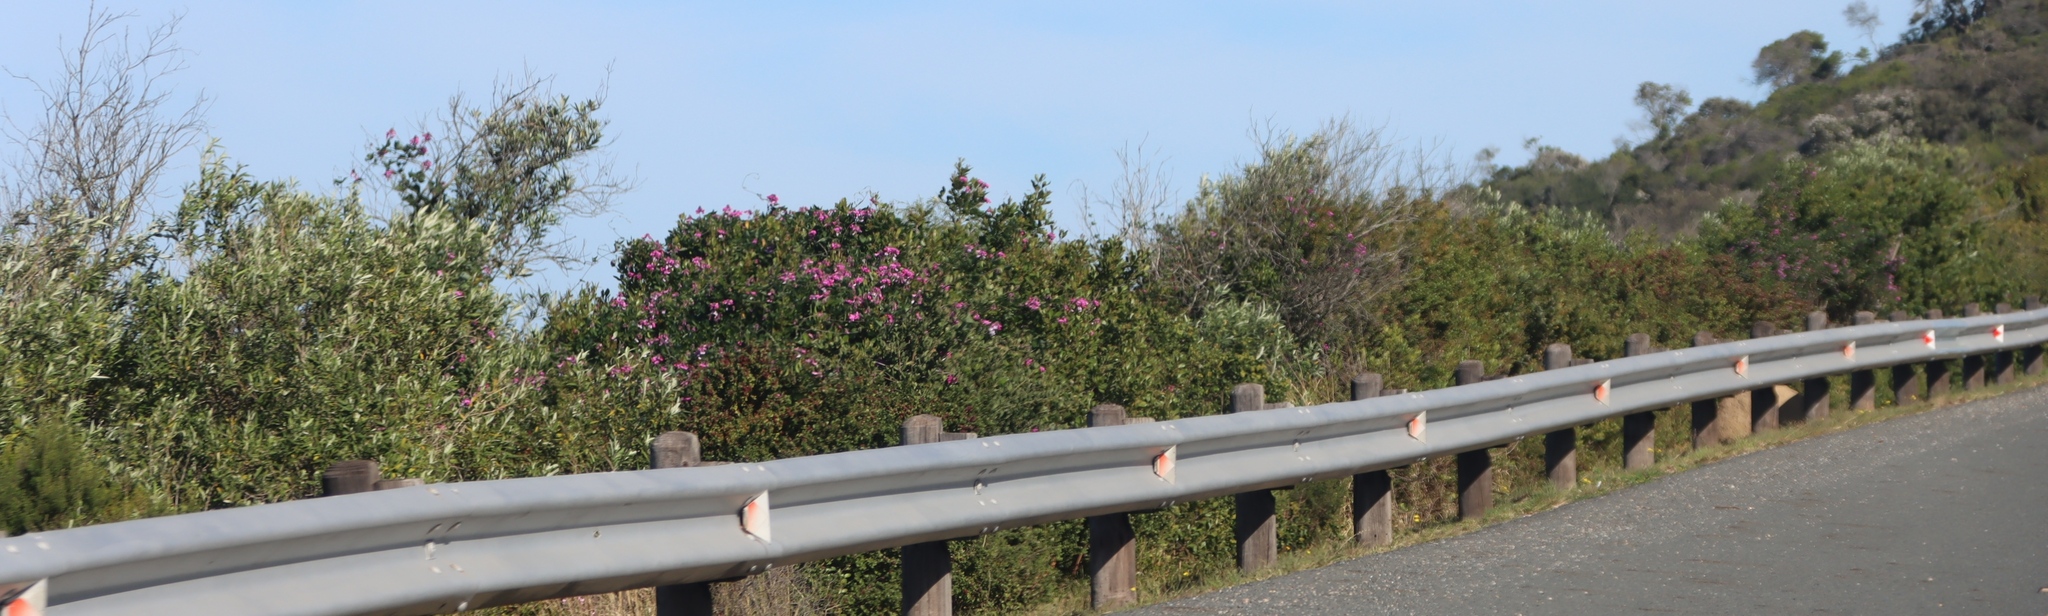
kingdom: Plantae
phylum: Tracheophyta
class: Magnoliopsida
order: Fabales
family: Polygalaceae
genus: Polygala
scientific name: Polygala myrtifolia
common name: Myrtle-leaf milkwort
